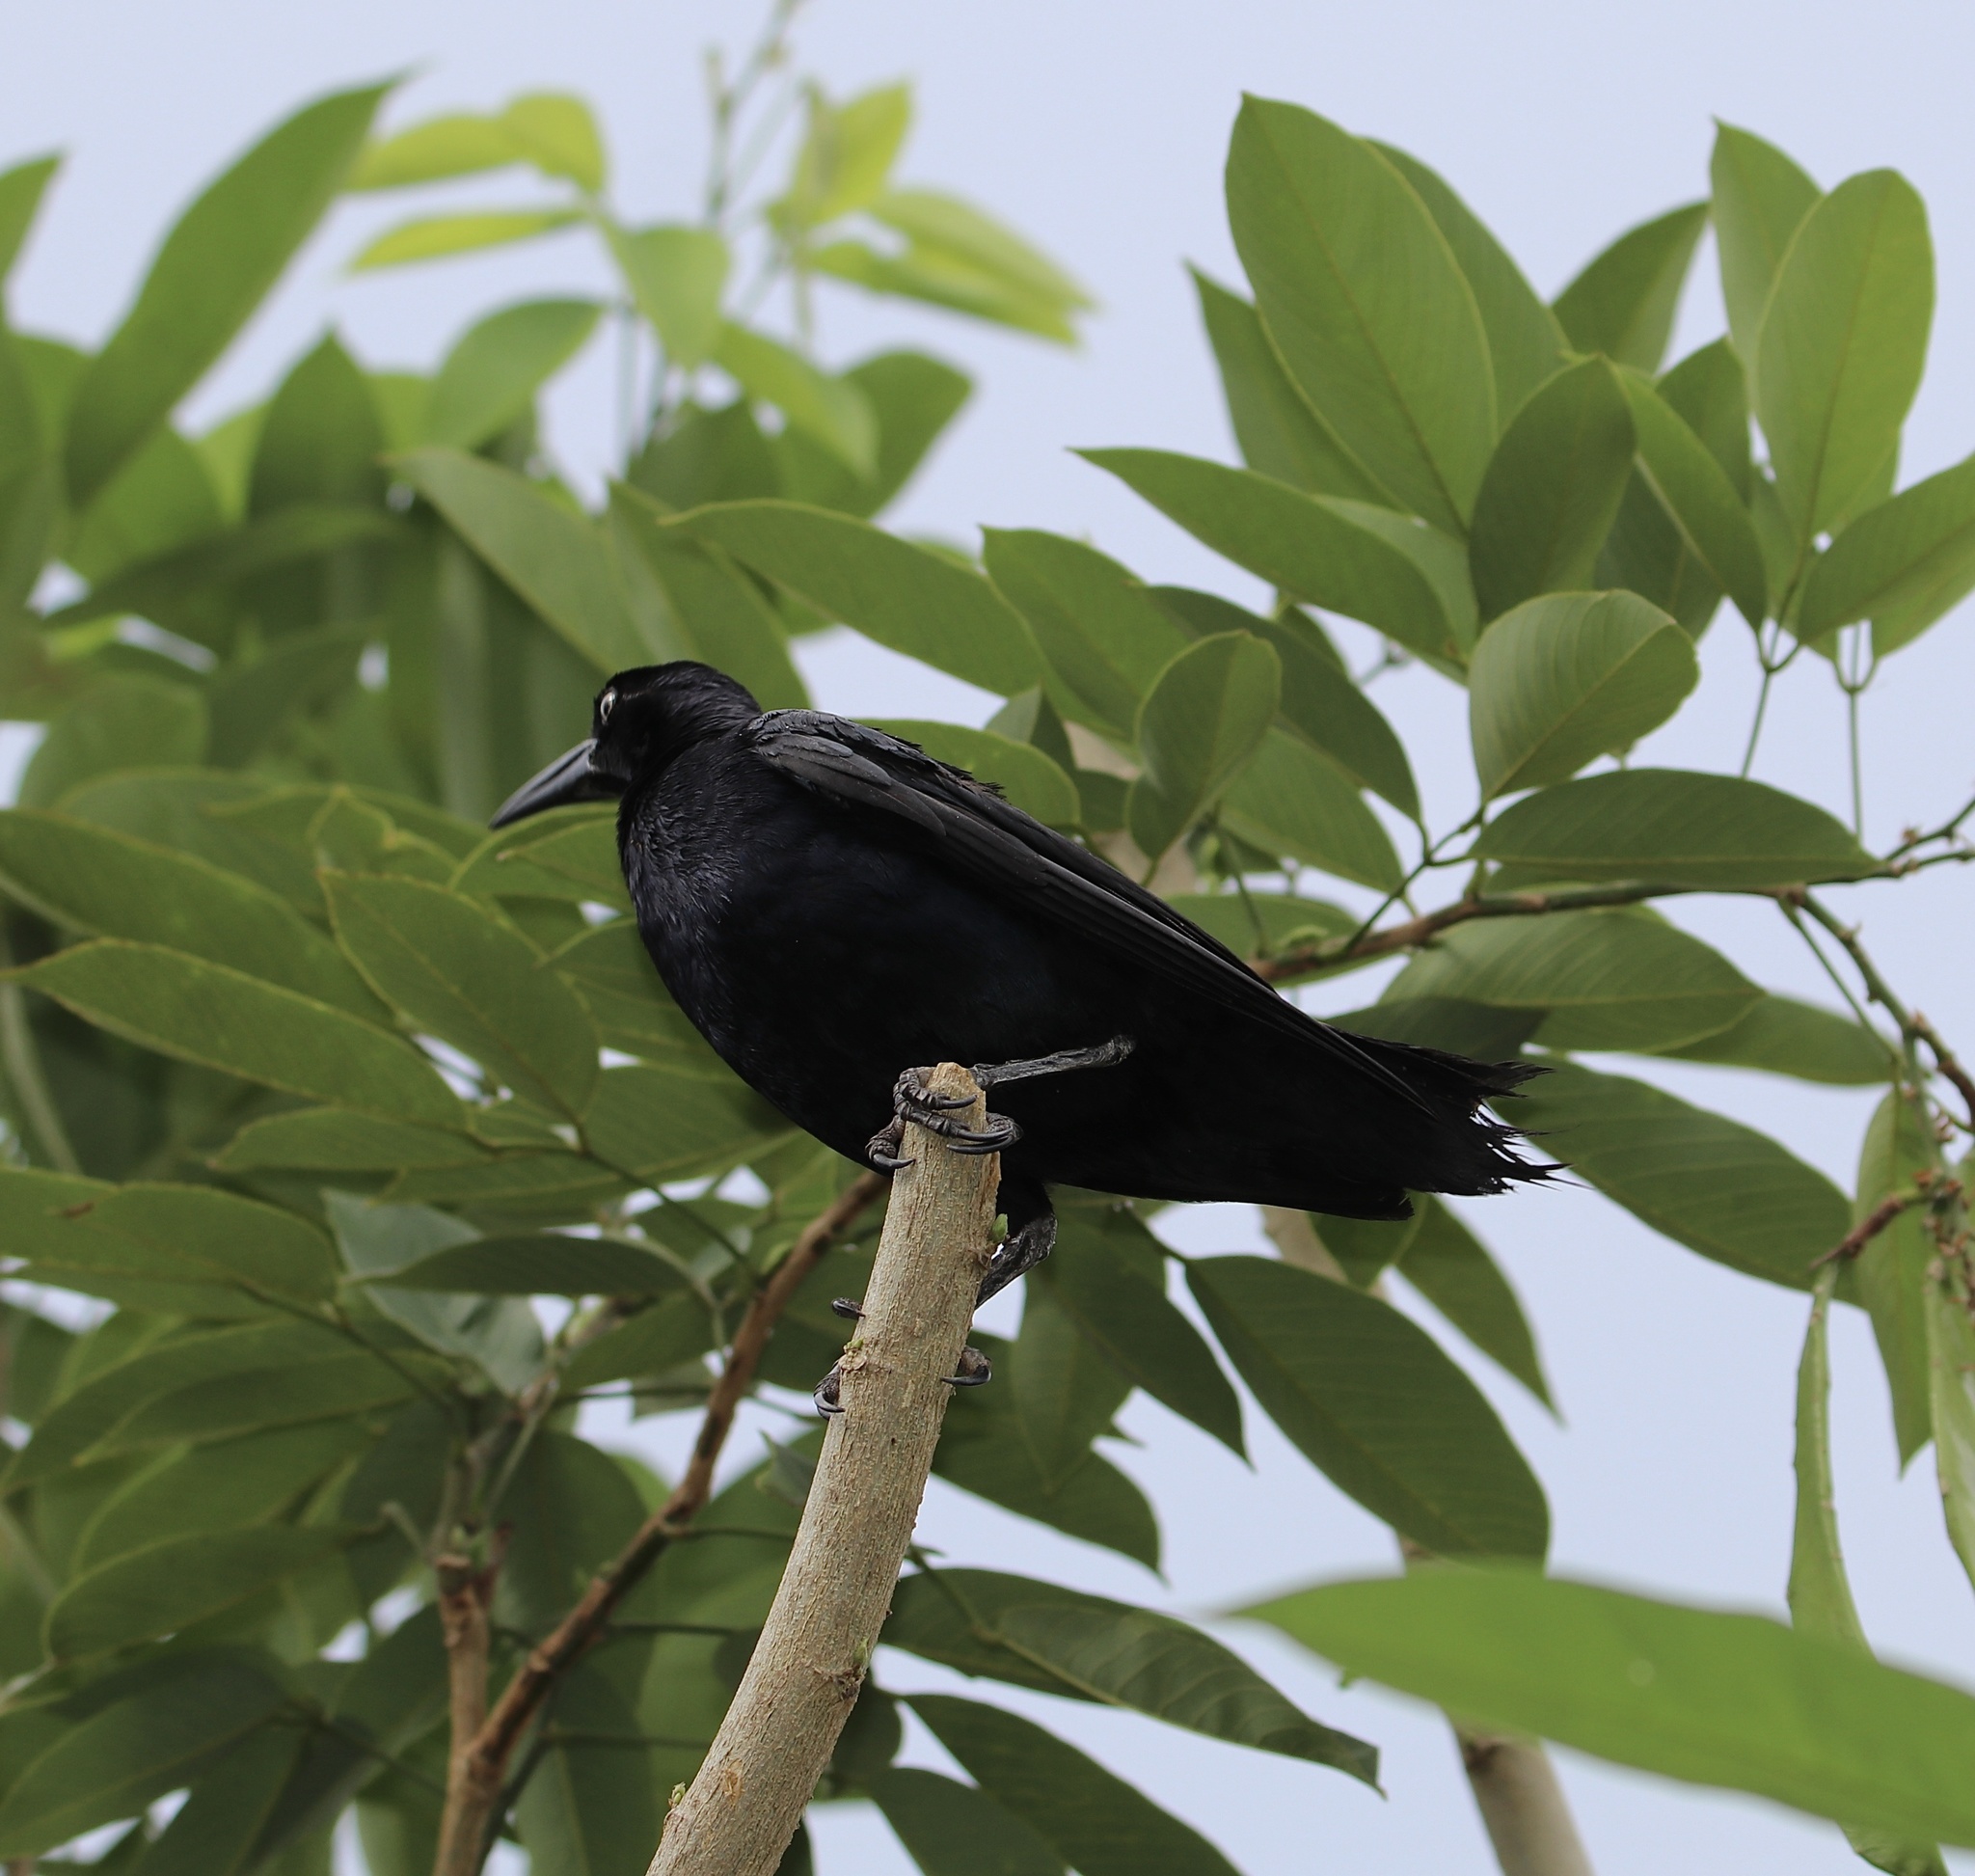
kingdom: Animalia
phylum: Chordata
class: Aves
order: Passeriformes
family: Icteridae
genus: Quiscalus
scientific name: Quiscalus mexicanus
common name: Great-tailed grackle
